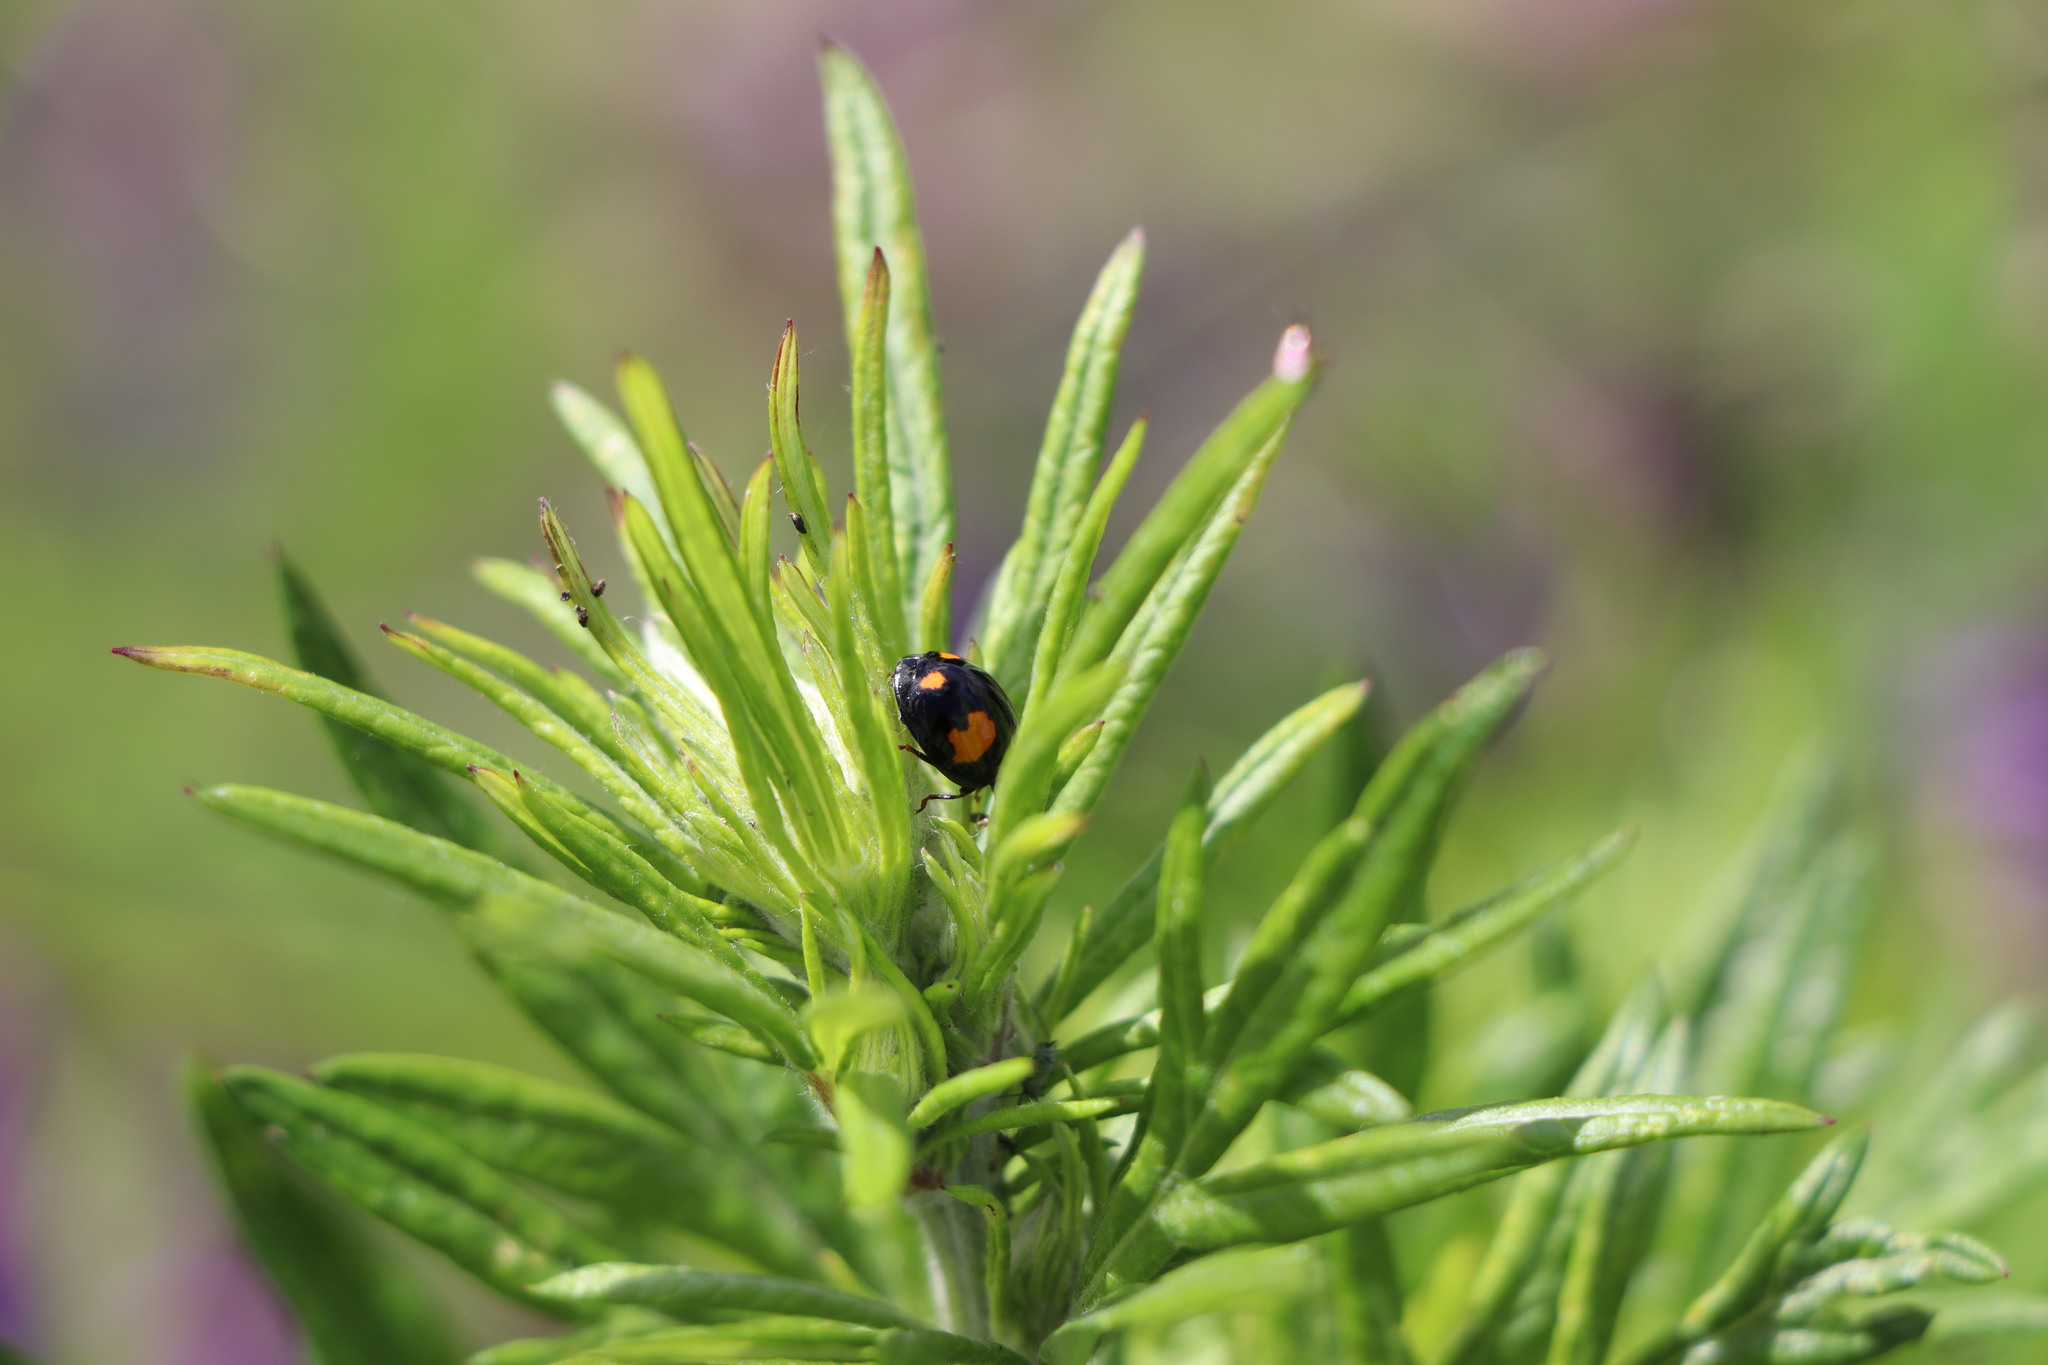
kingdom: Animalia
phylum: Arthropoda
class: Insecta
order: Coleoptera
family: Coccinellidae
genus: Harmonia
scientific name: Harmonia axyridis
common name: Harlequin ladybird
